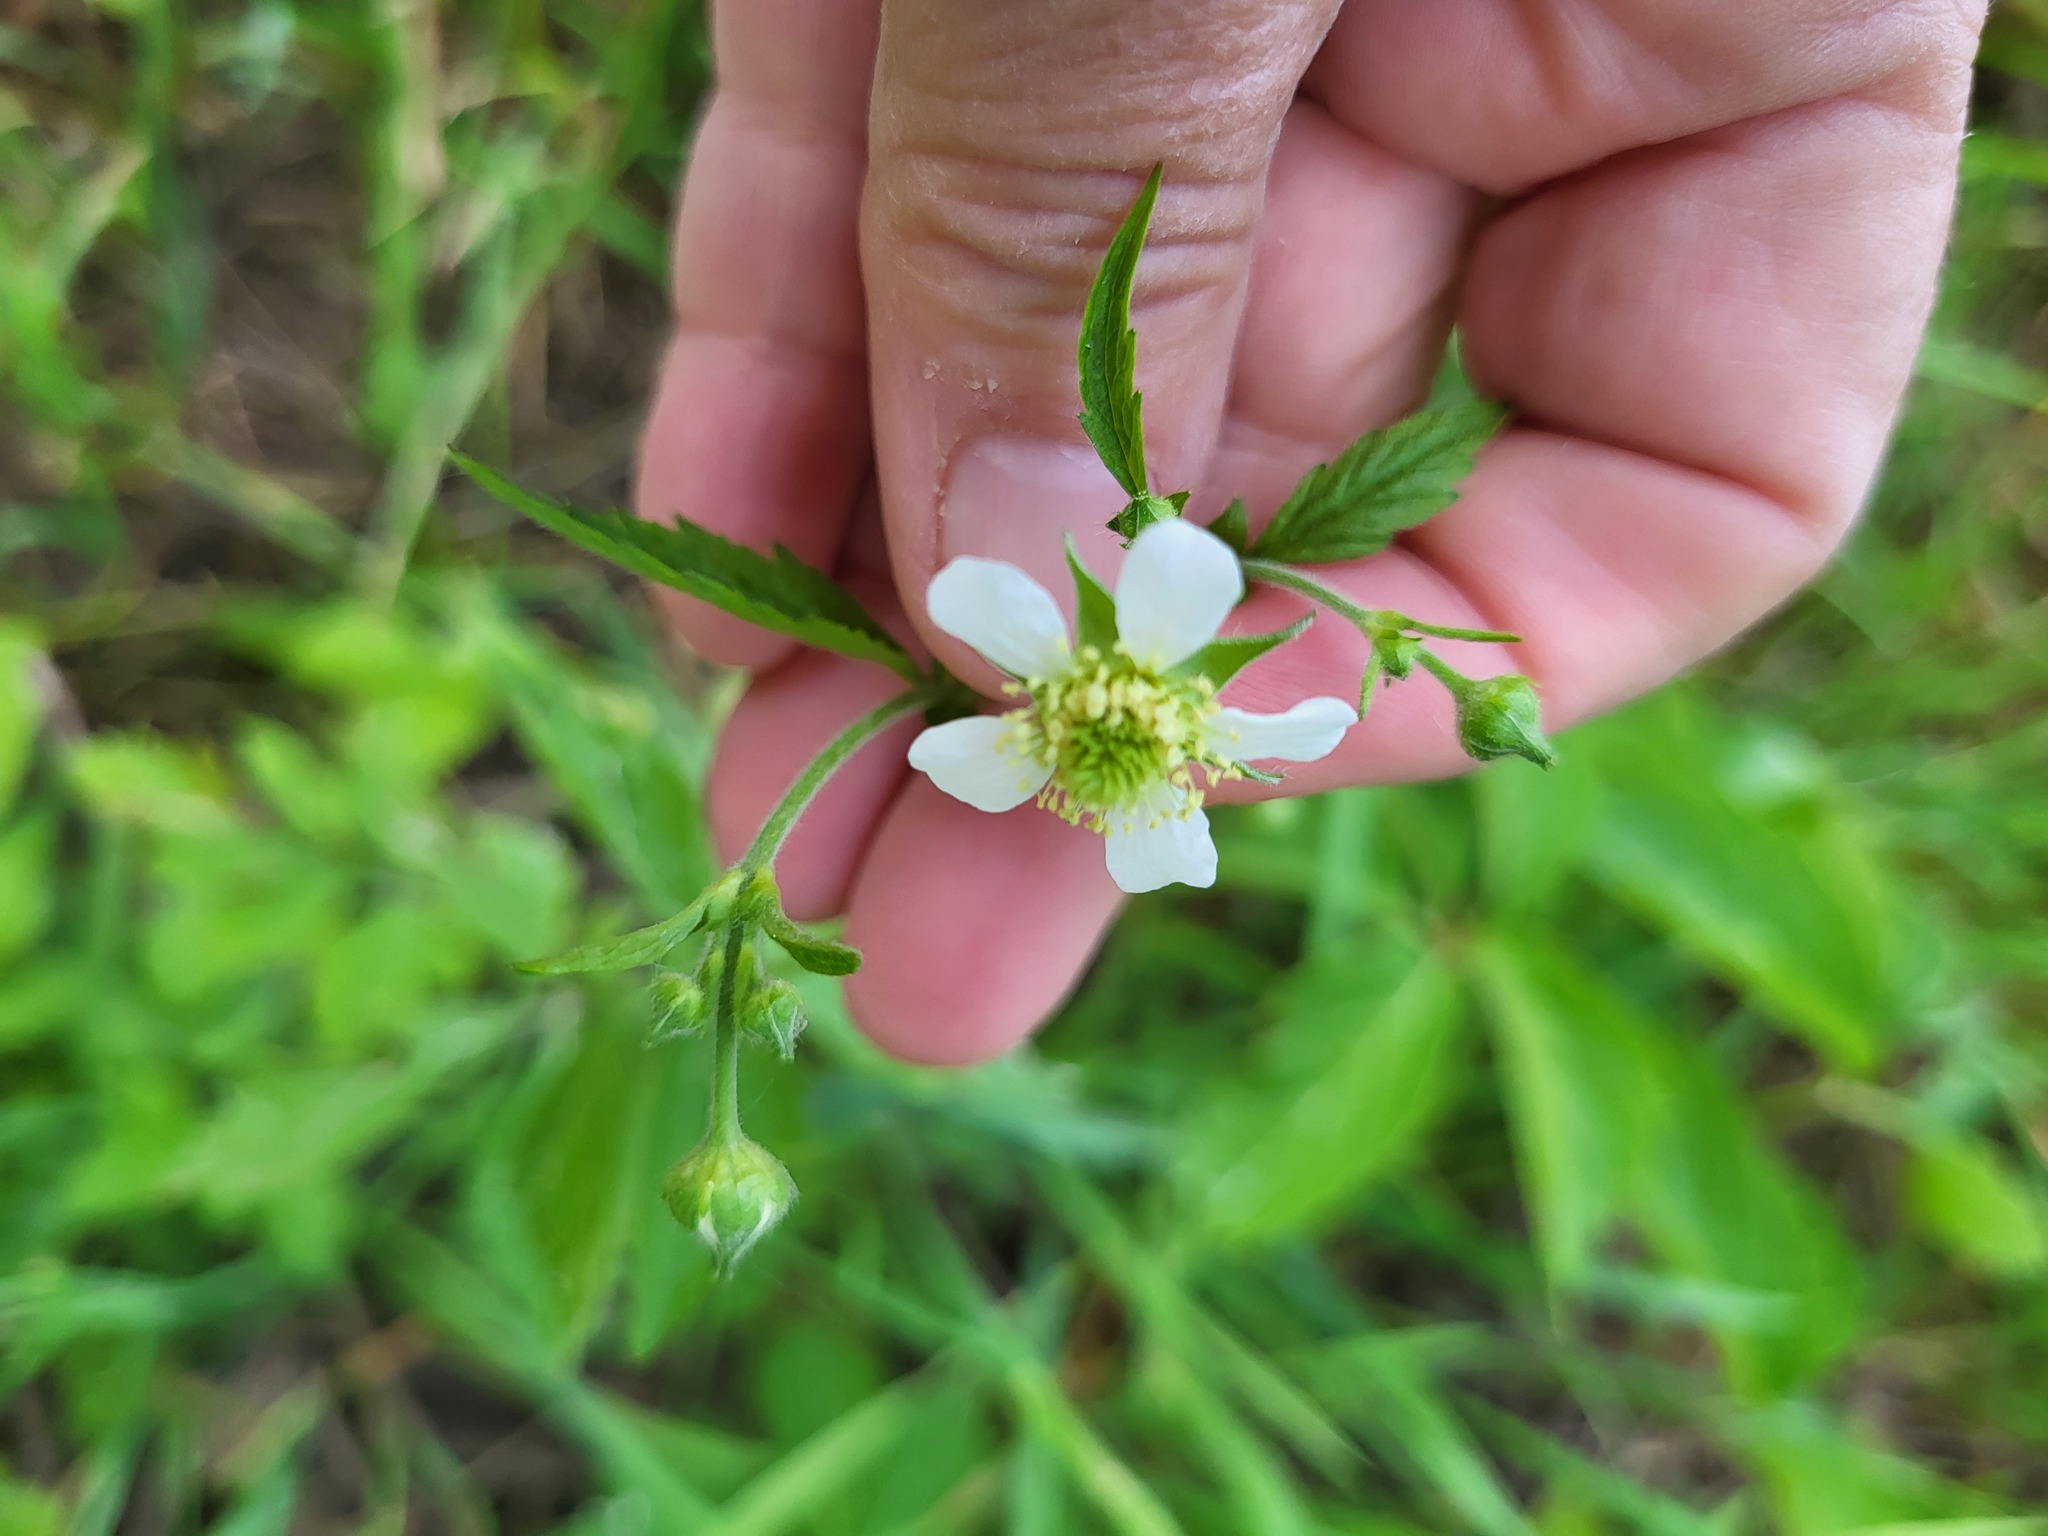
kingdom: Plantae
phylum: Tracheophyta
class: Magnoliopsida
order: Rosales
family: Rosaceae
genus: Geum
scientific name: Geum canadense
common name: White avens
